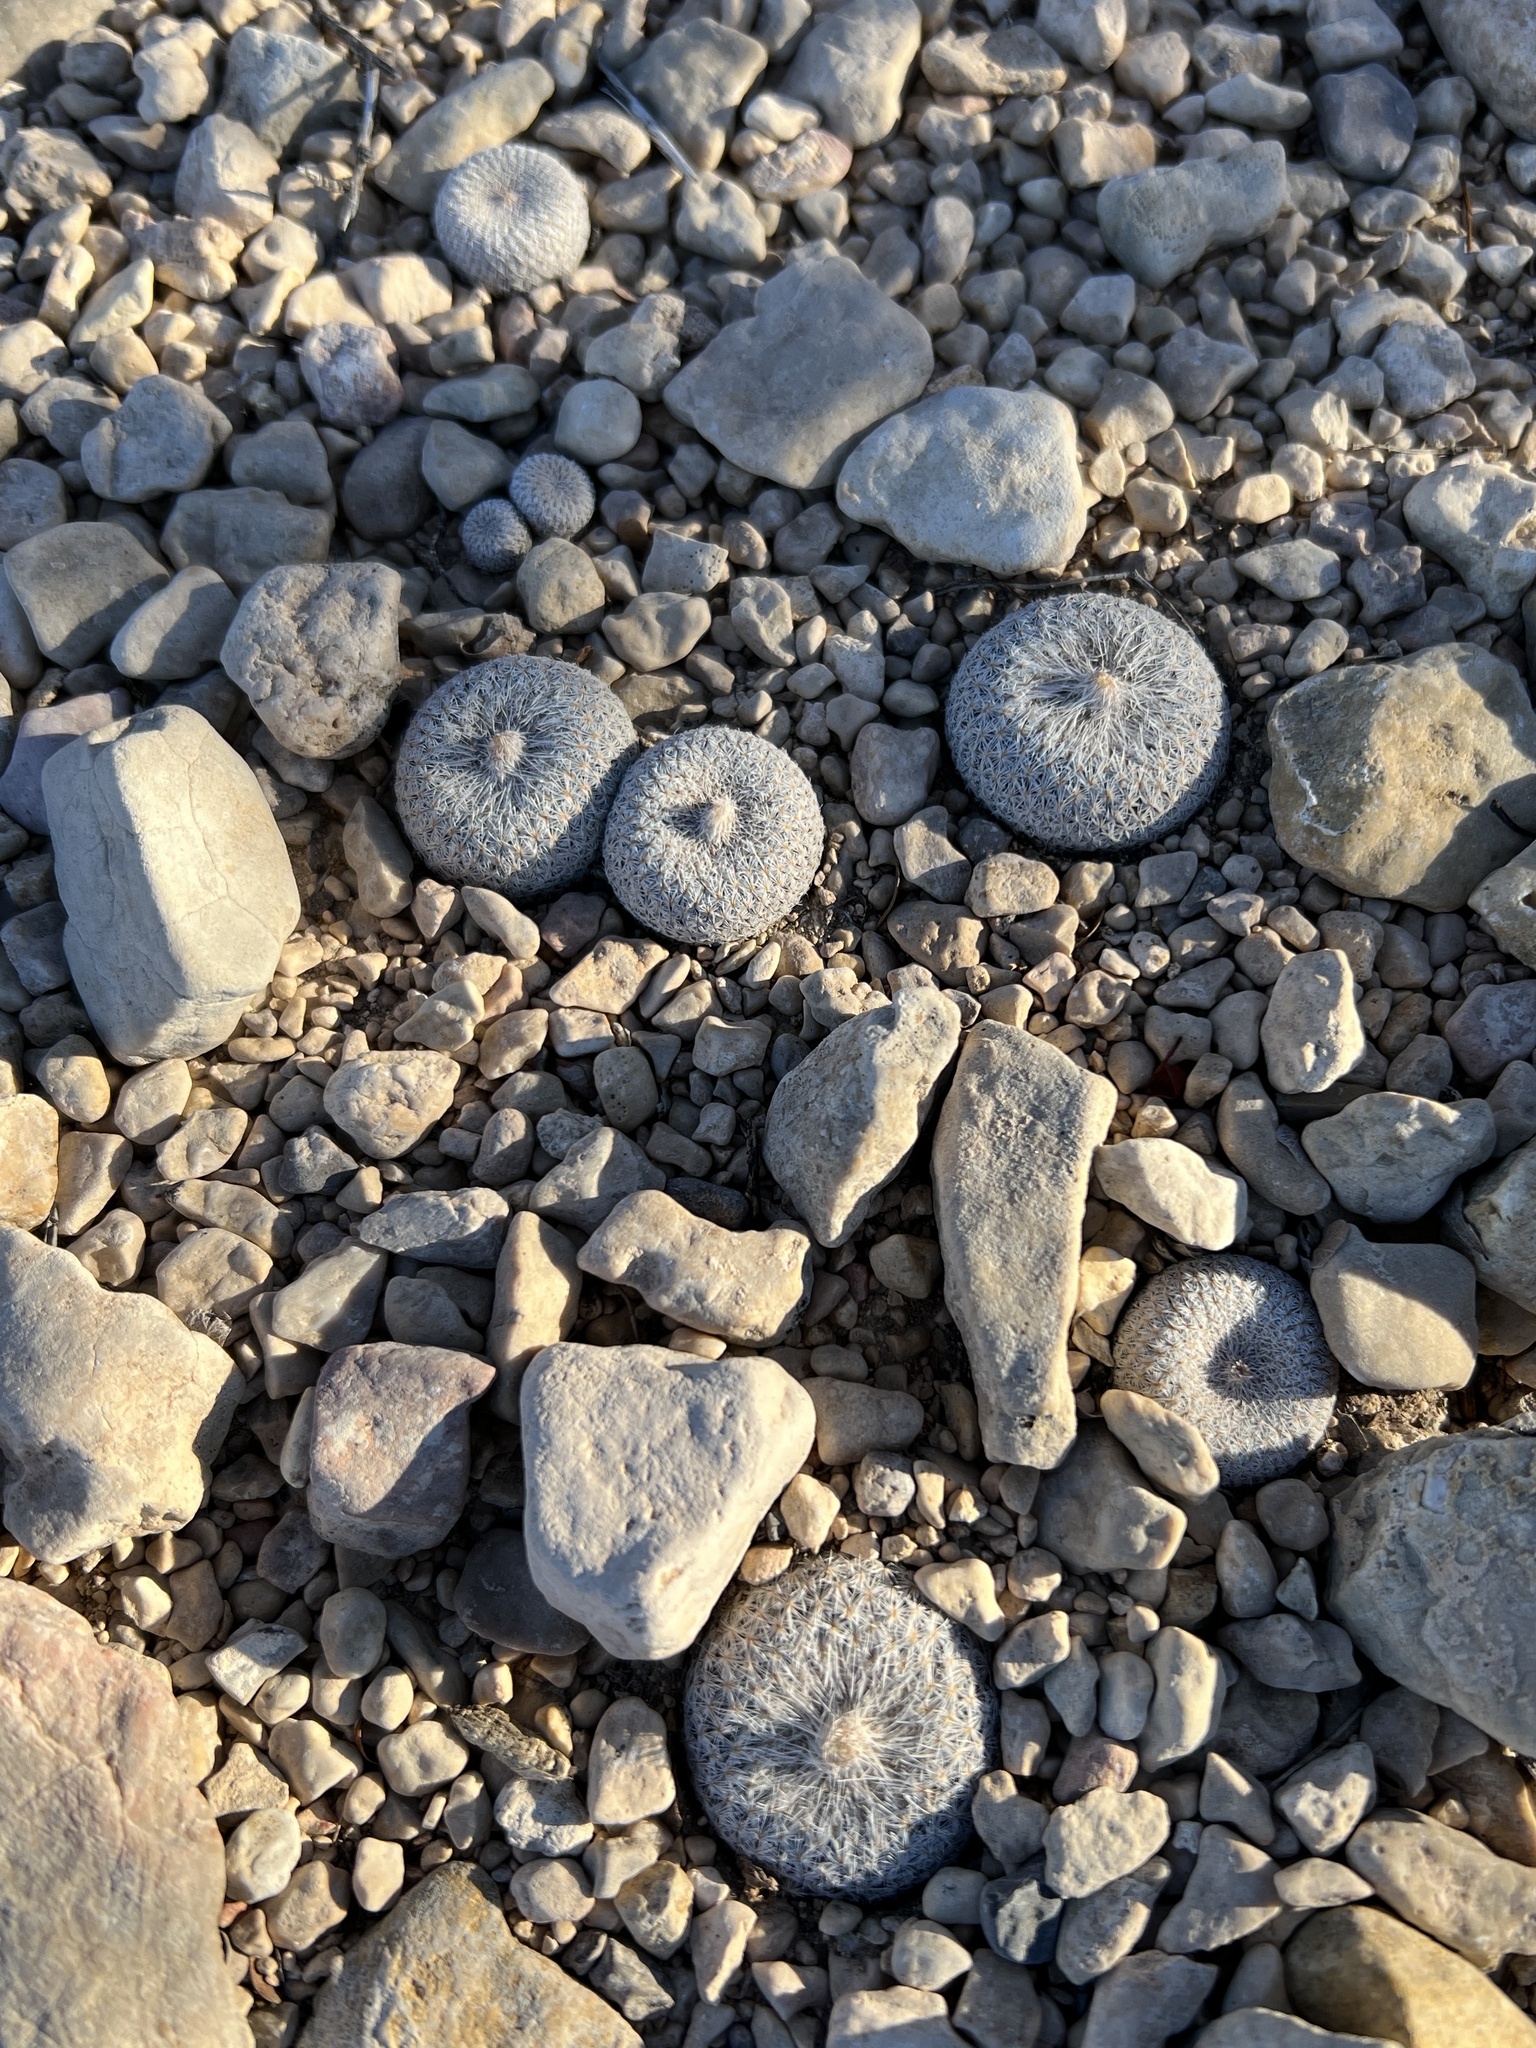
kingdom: Plantae
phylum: Tracheophyta
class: Magnoliopsida
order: Caryophyllales
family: Cactaceae
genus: Epithelantha
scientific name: Epithelantha micromeris
